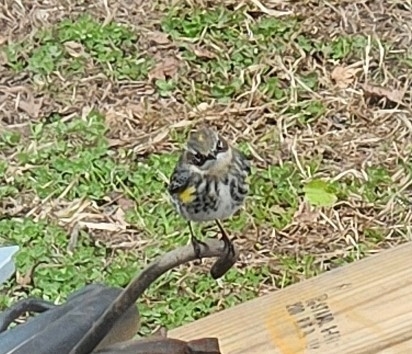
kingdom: Animalia
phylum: Chordata
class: Aves
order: Passeriformes
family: Parulidae
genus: Setophaga
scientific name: Setophaga coronata
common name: Myrtle warbler
